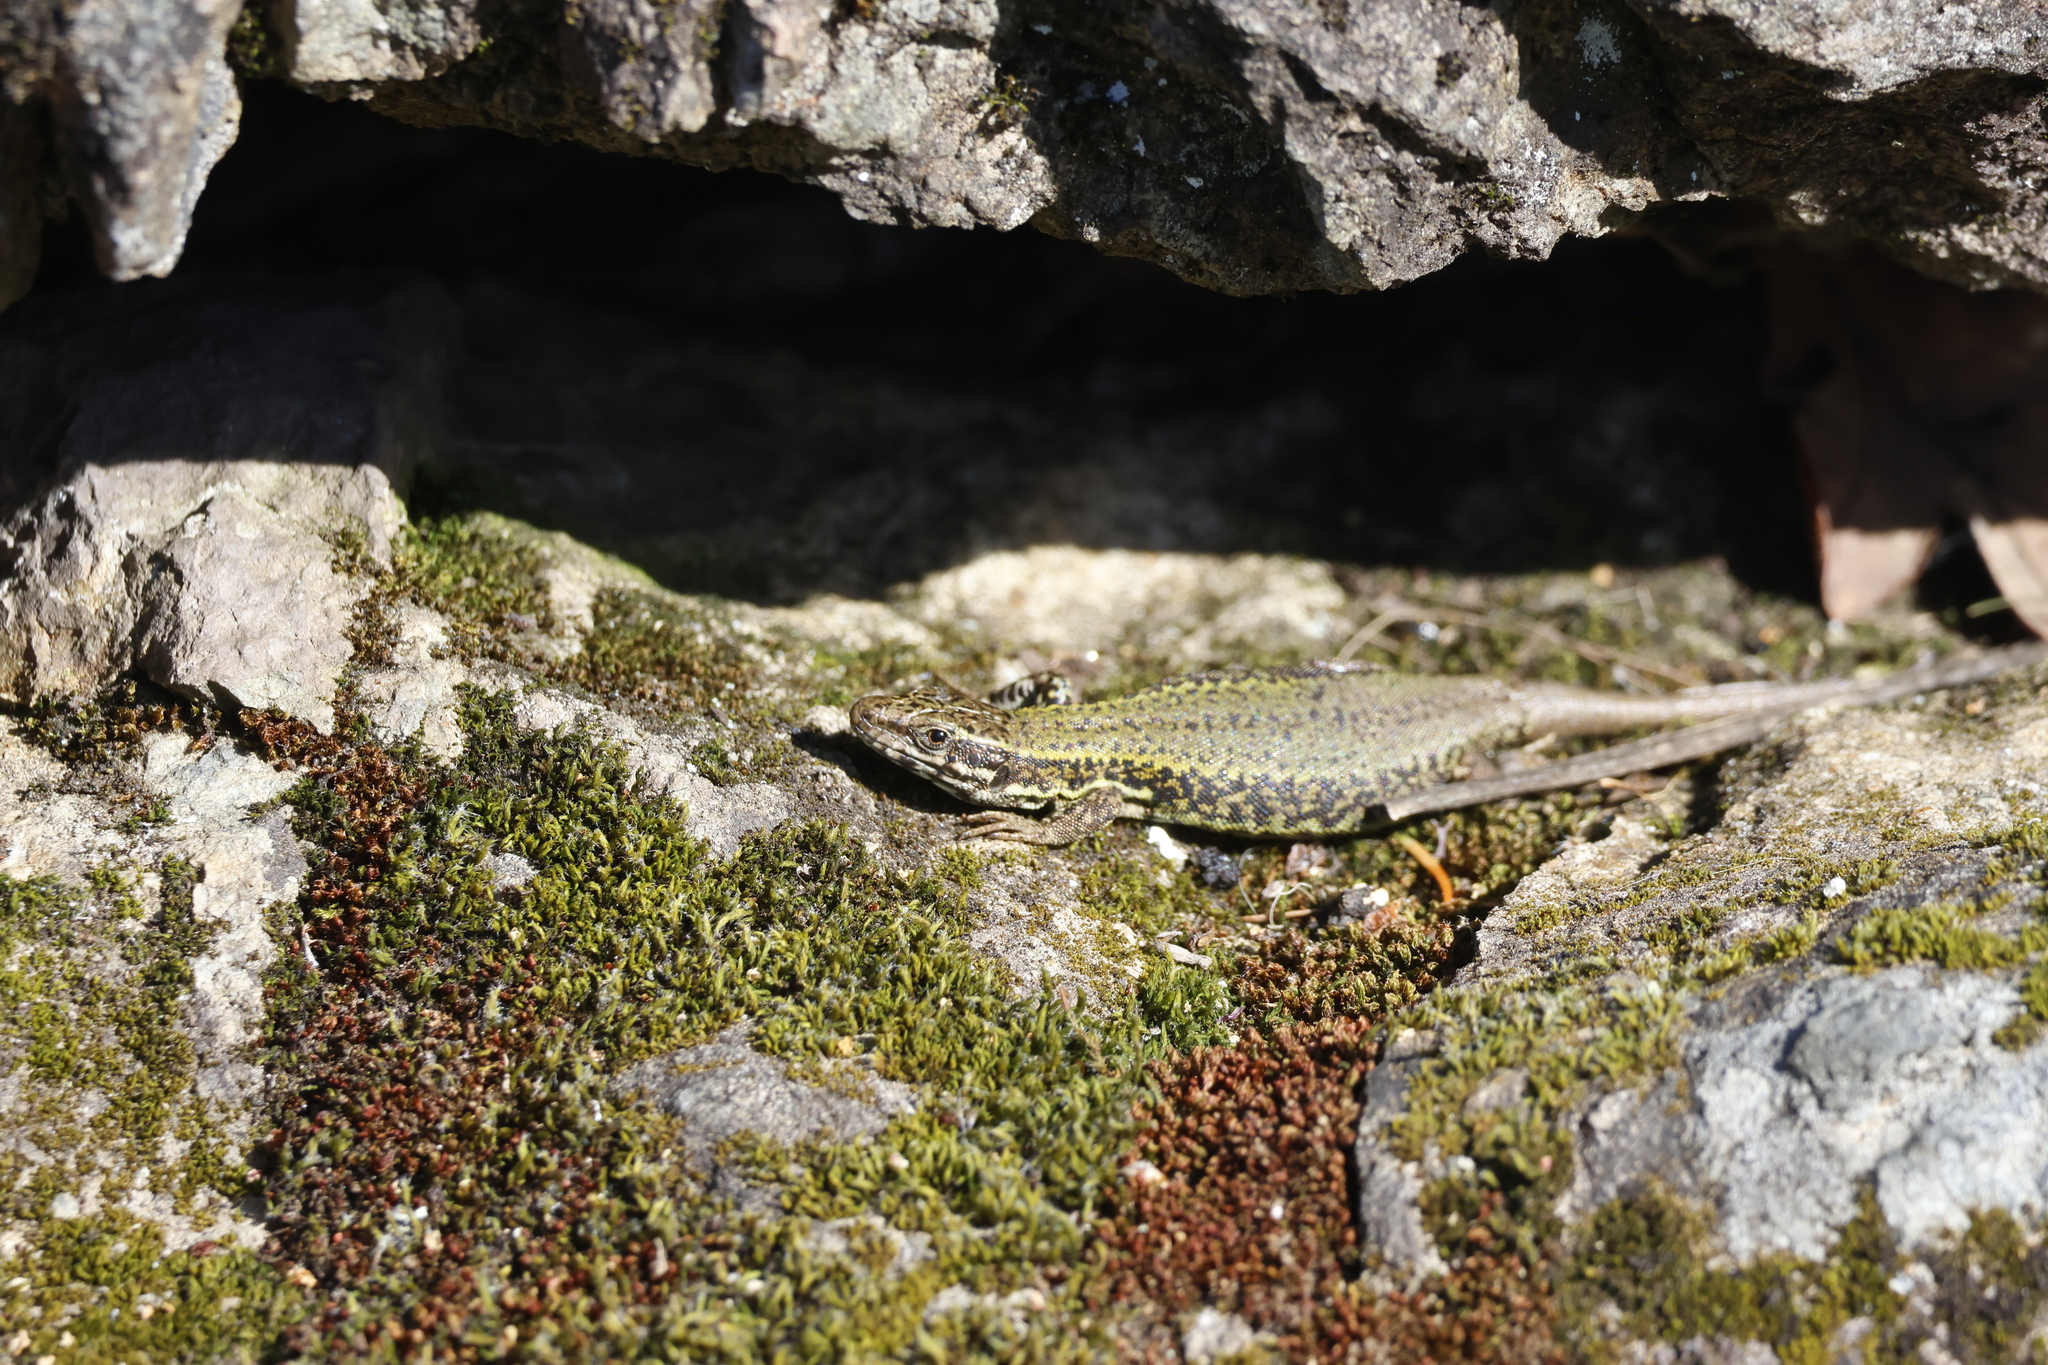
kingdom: Animalia
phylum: Chordata
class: Squamata
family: Lacertidae
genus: Podarcis
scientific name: Podarcis muralis
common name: Common wall lizard
